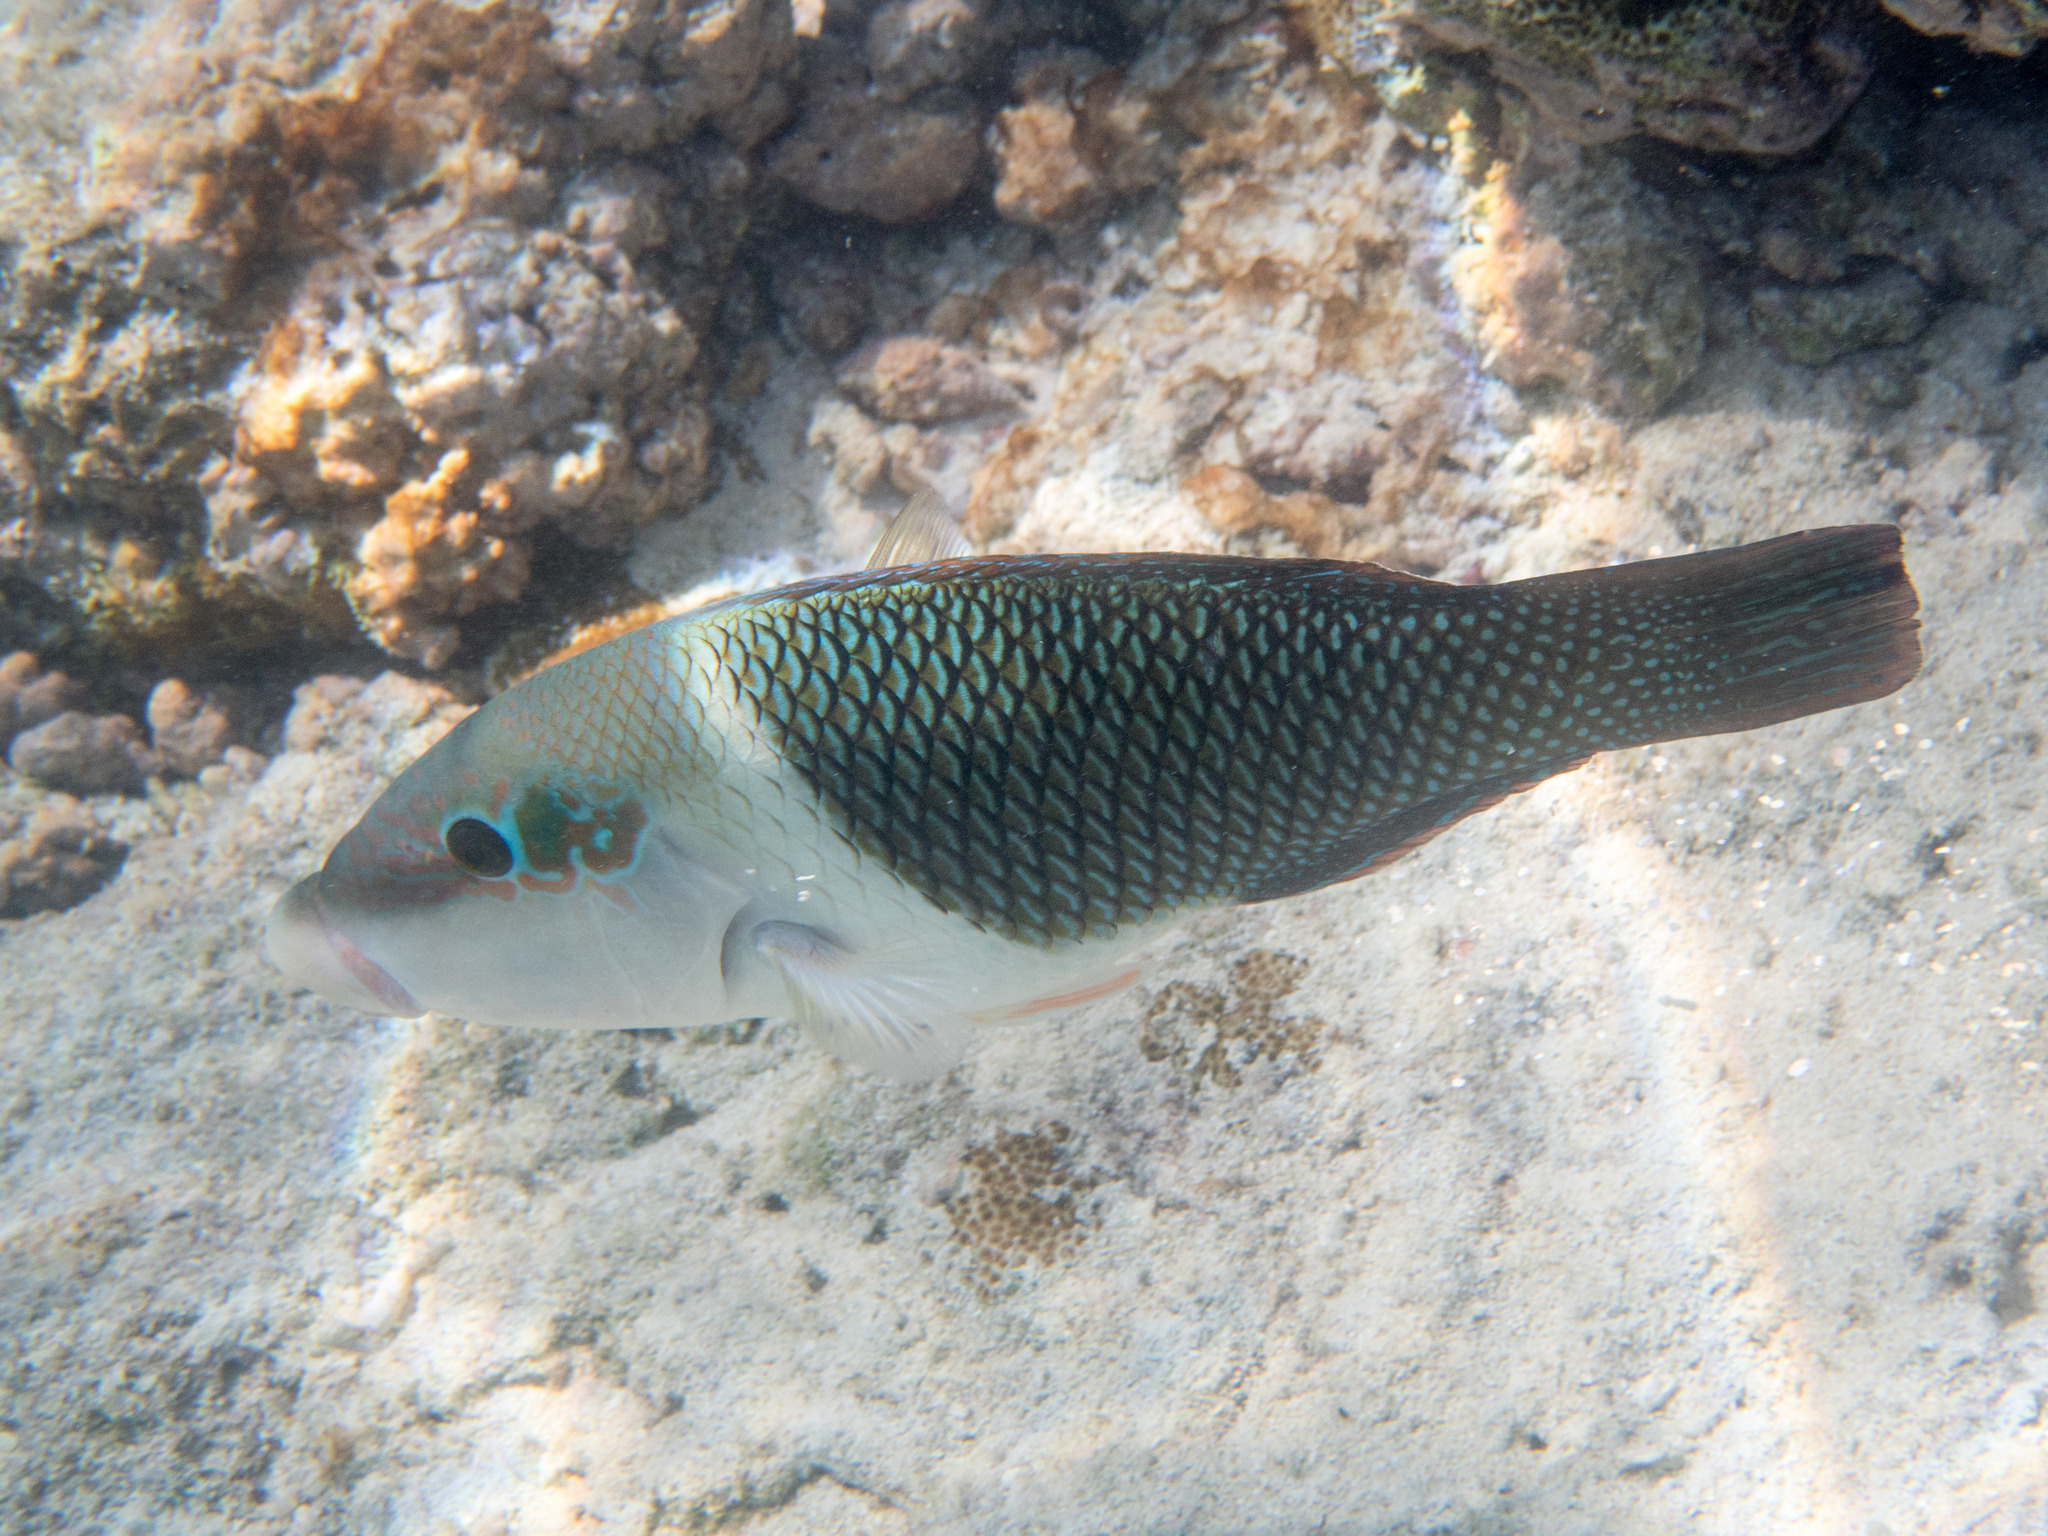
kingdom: Animalia
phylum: Chordata
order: Perciformes
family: Labridae
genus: Hemigymnus
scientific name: Hemigymnus melapterus
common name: Blackeye thicklip
